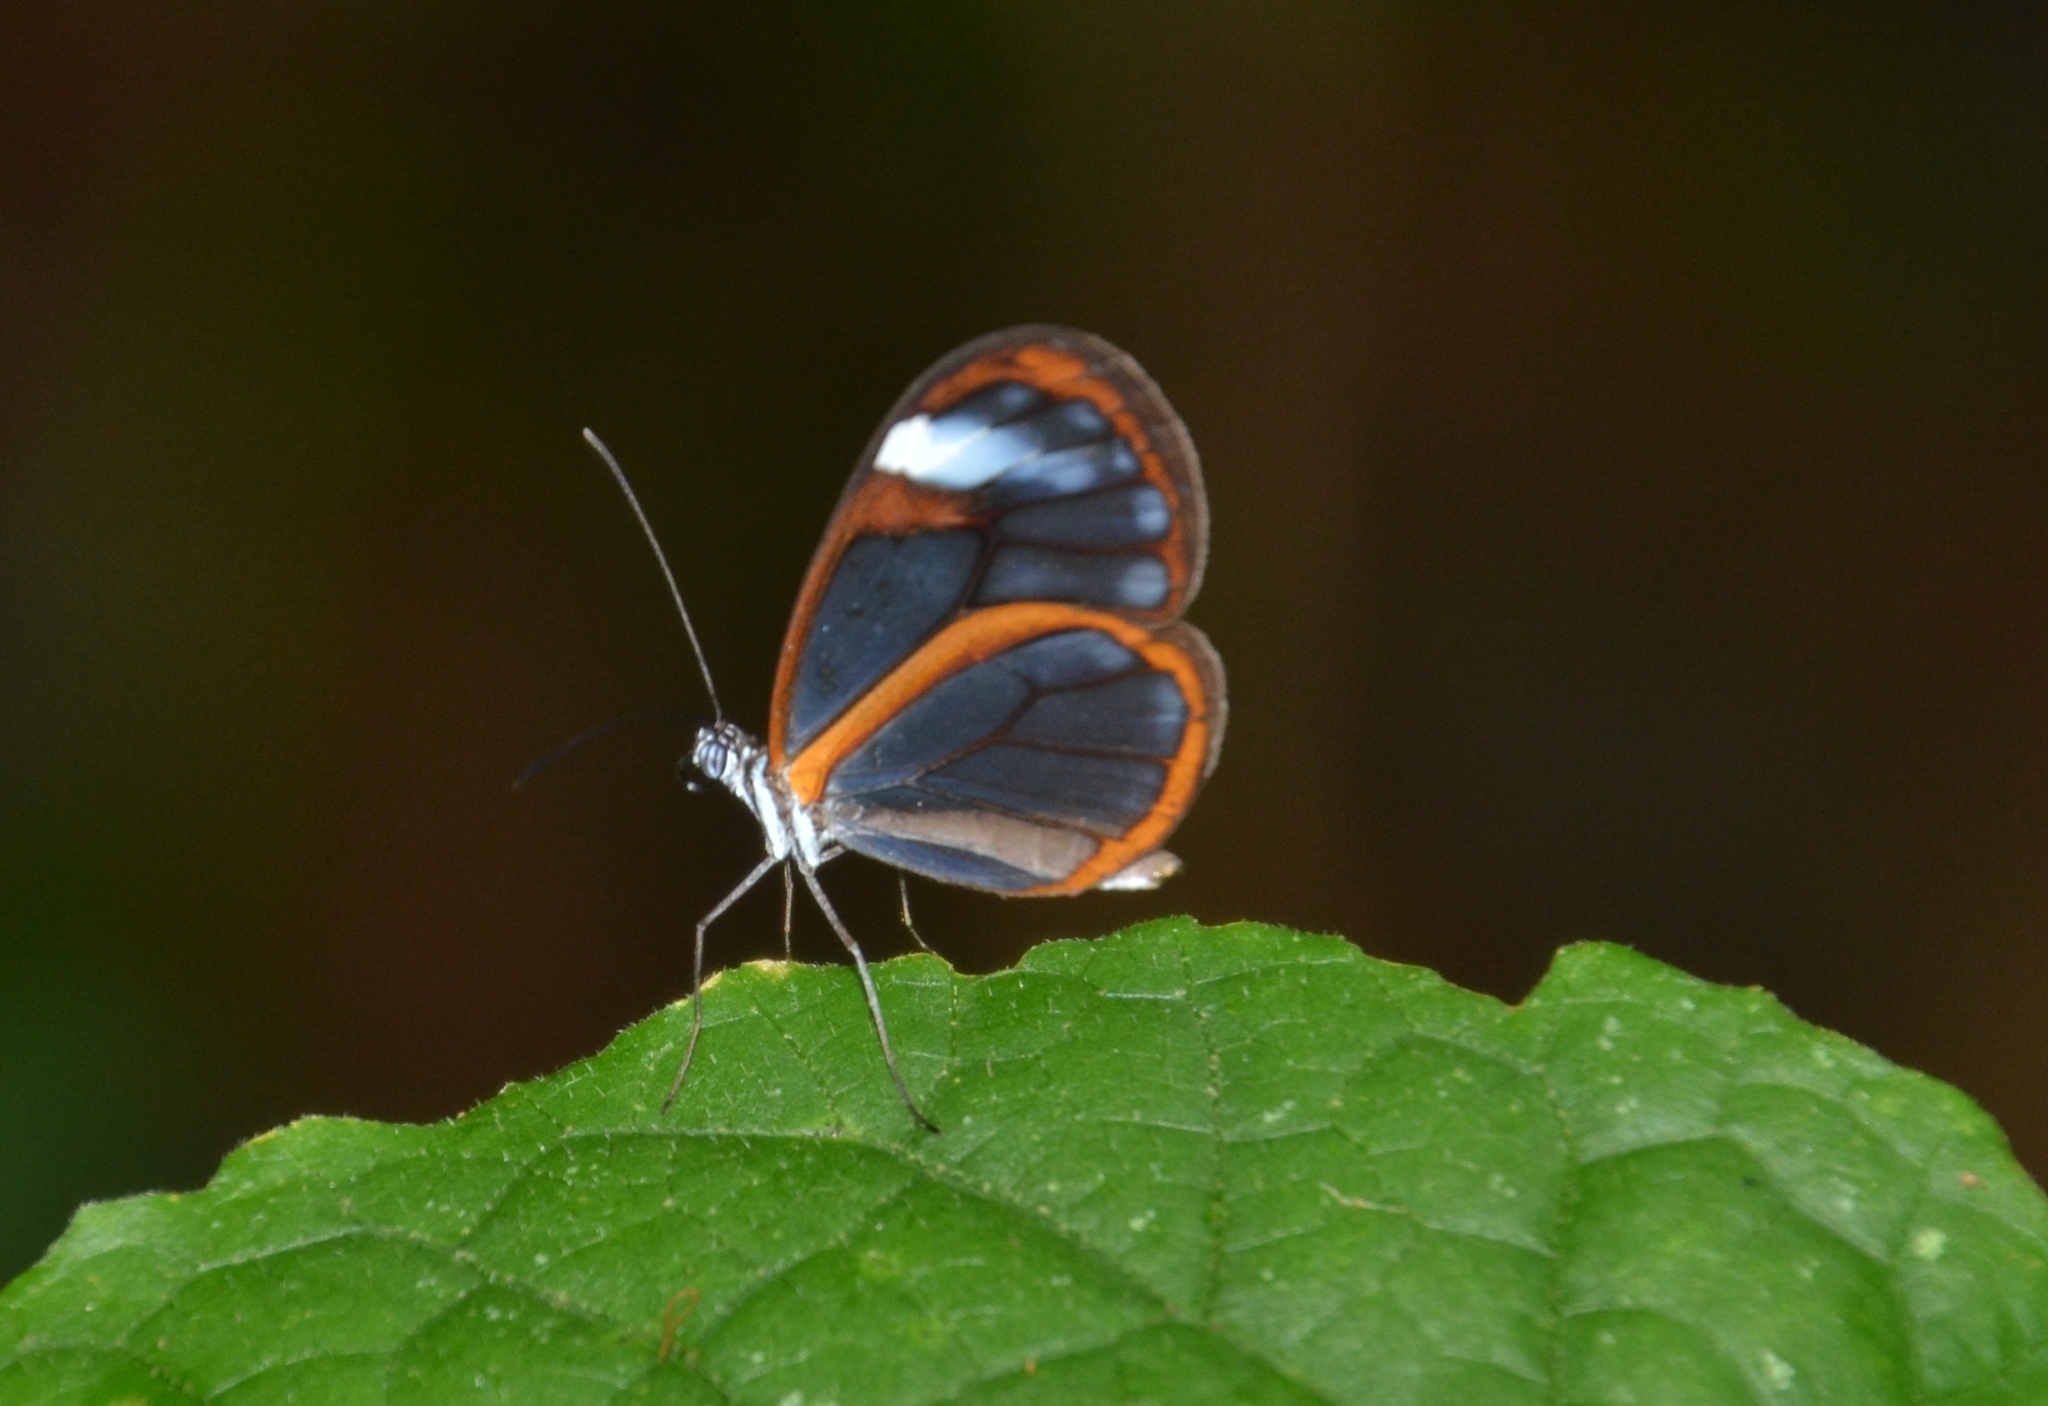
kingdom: Animalia
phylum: Arthropoda
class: Insecta
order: Lepidoptera
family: Nymphalidae
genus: Hypoleria
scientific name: Hypoleria lavinia
